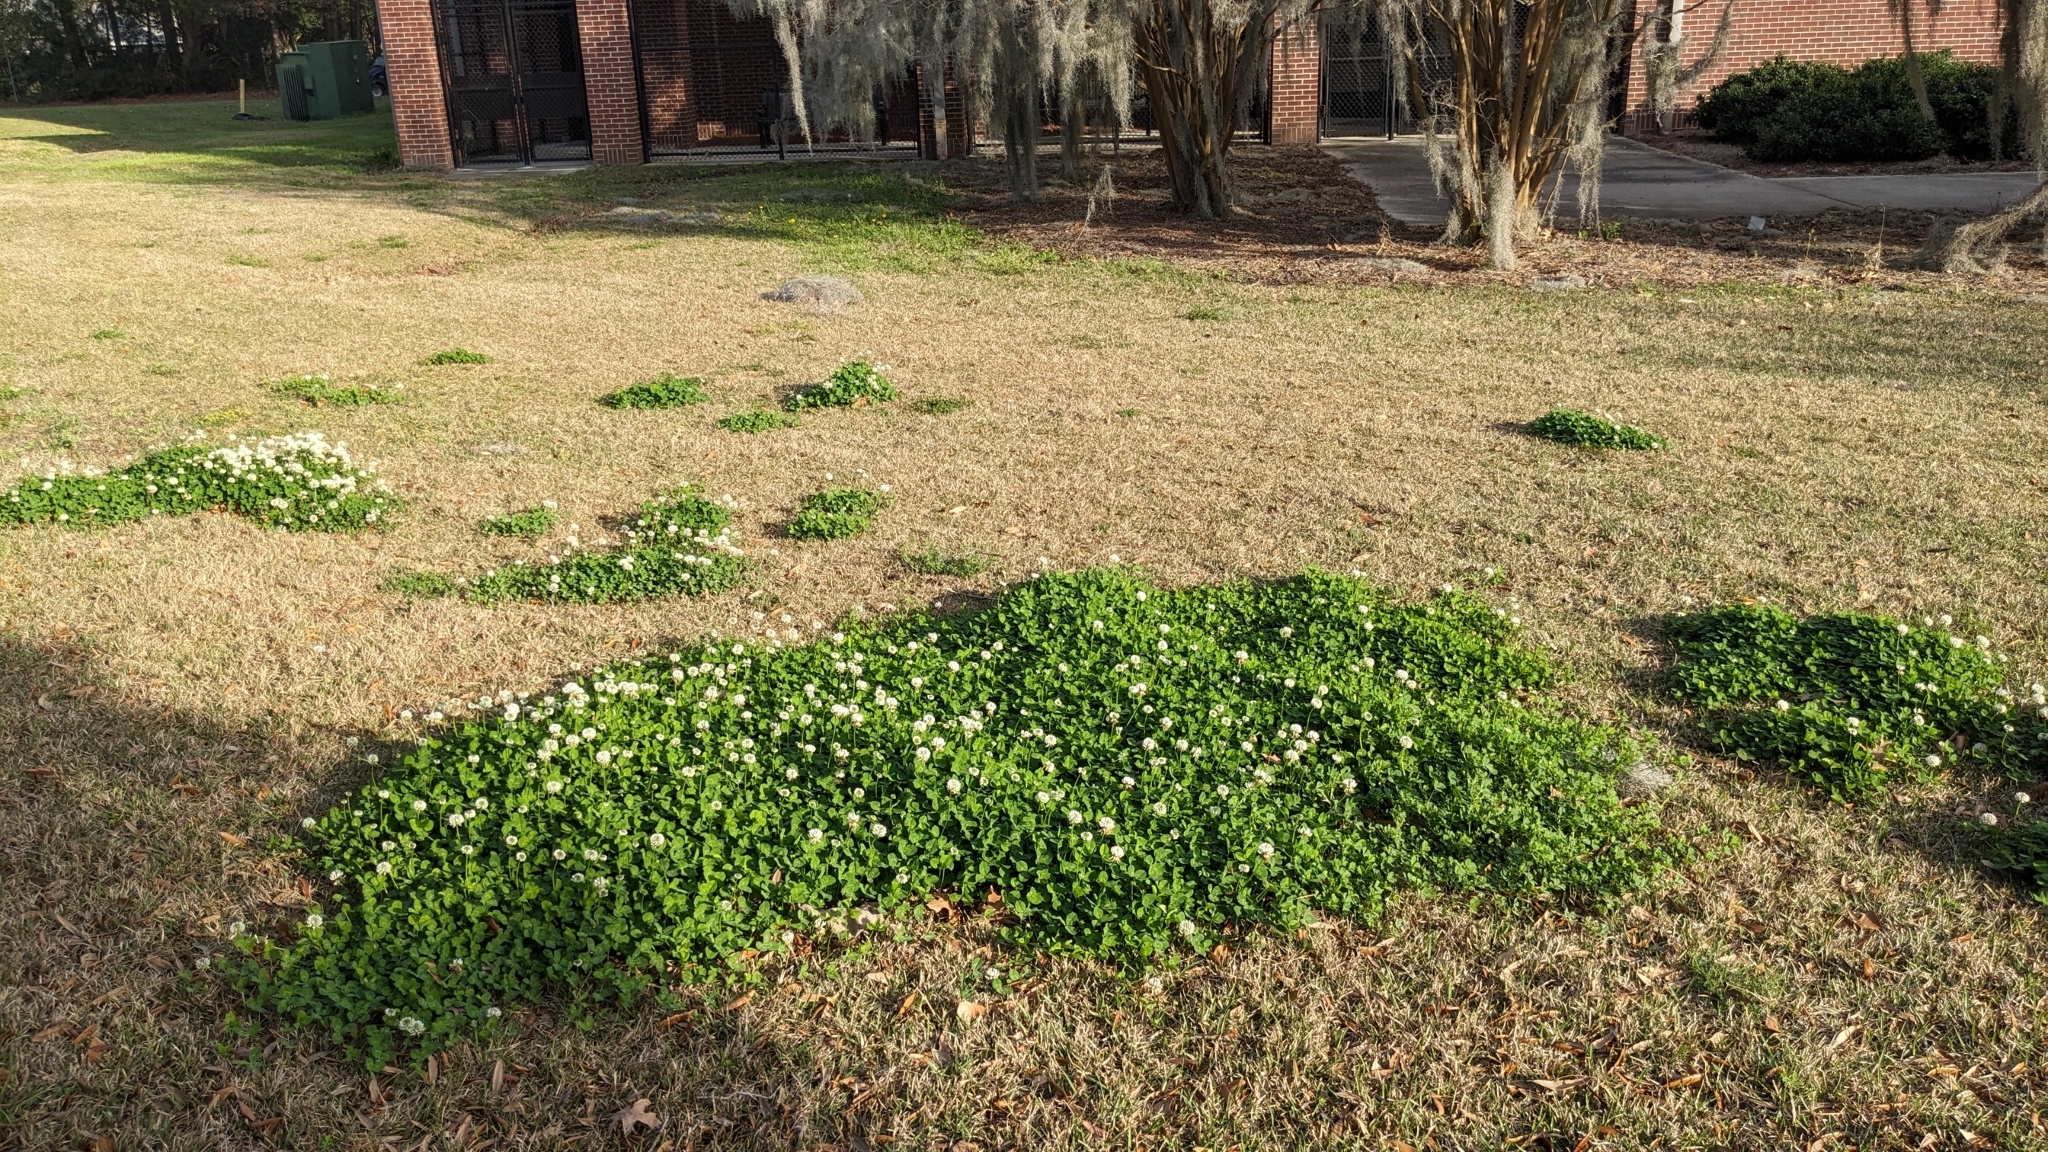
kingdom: Plantae
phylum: Tracheophyta
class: Magnoliopsida
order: Fabales
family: Fabaceae
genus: Trifolium
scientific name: Trifolium repens
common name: White clover
